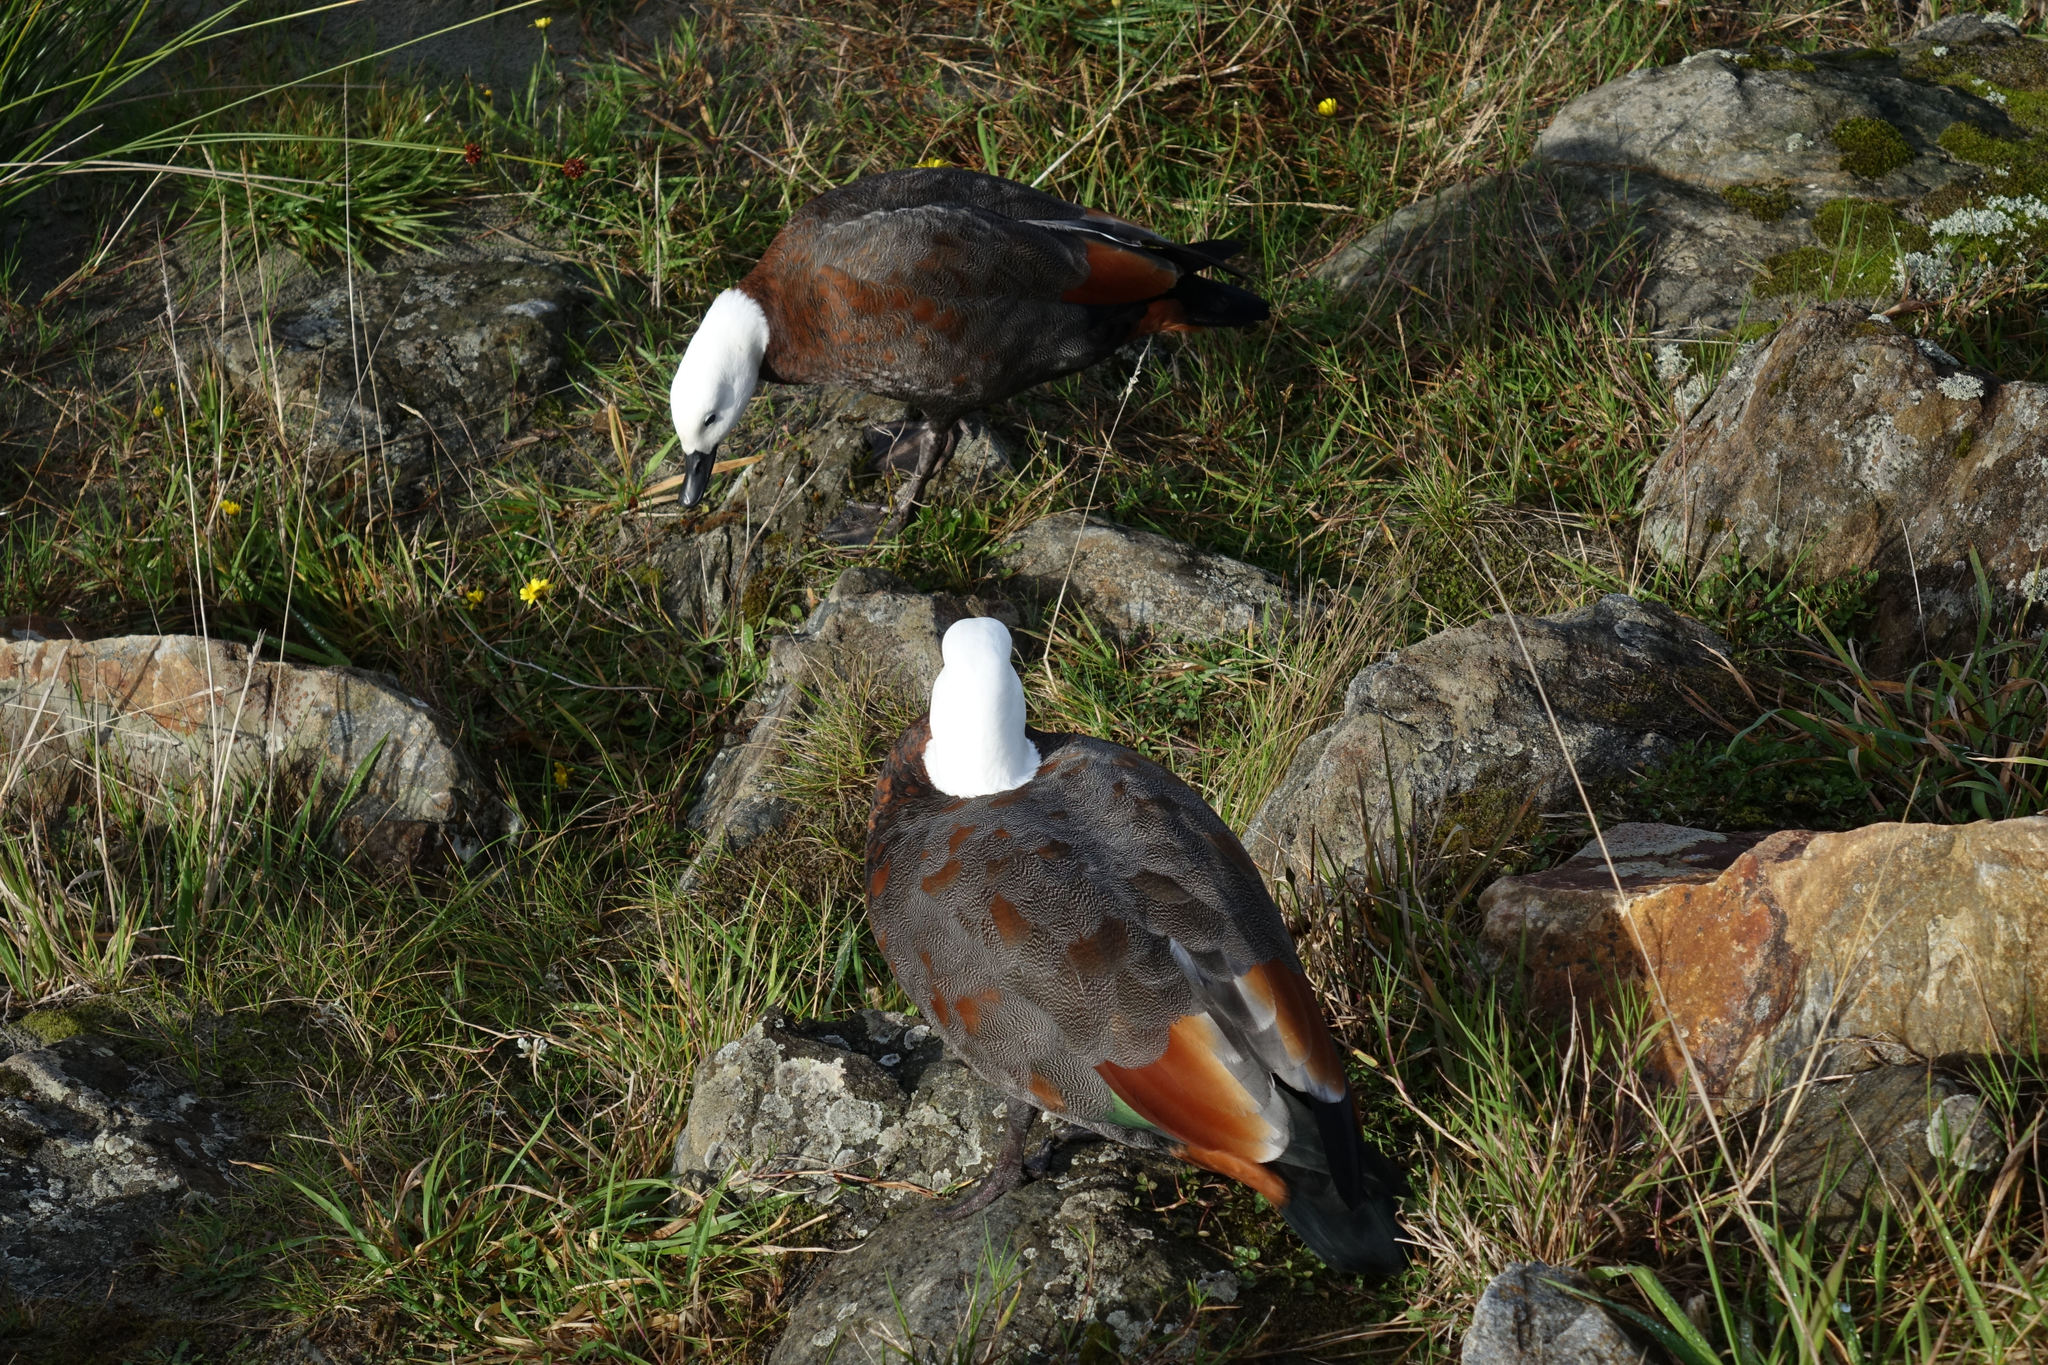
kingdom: Animalia
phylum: Chordata
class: Aves
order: Anseriformes
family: Anatidae
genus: Tadorna
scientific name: Tadorna variegata
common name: Paradise shelduck
